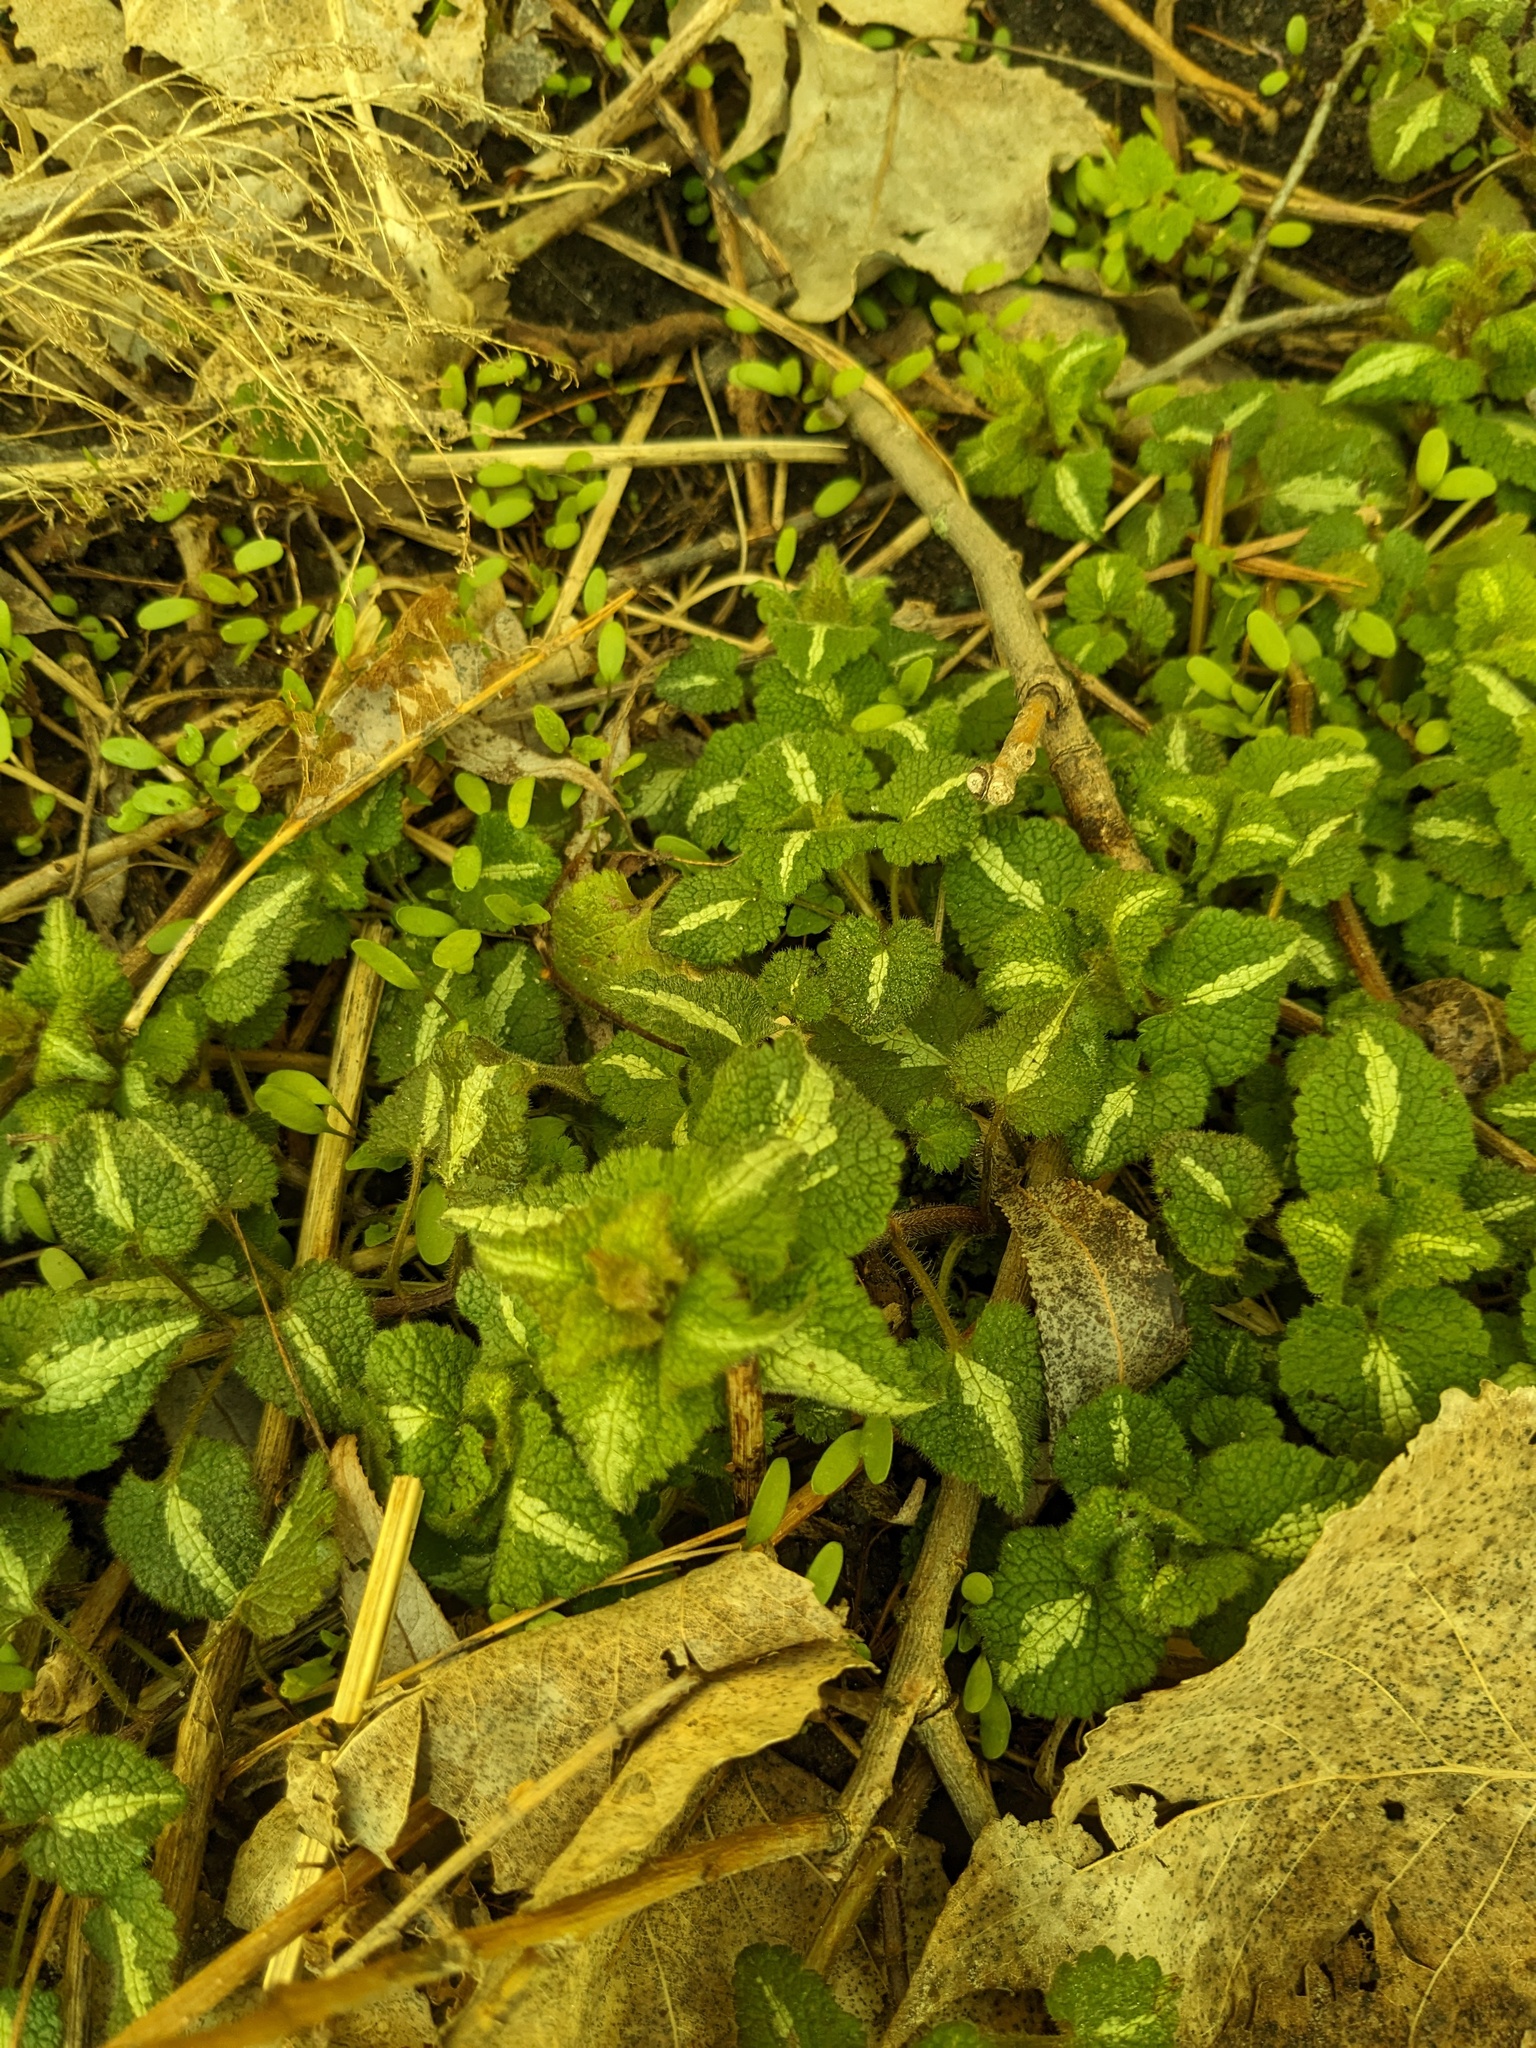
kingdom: Plantae
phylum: Tracheophyta
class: Magnoliopsida
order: Lamiales
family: Lamiaceae
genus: Lamium
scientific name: Lamium maculatum
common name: Spotted dead-nettle
